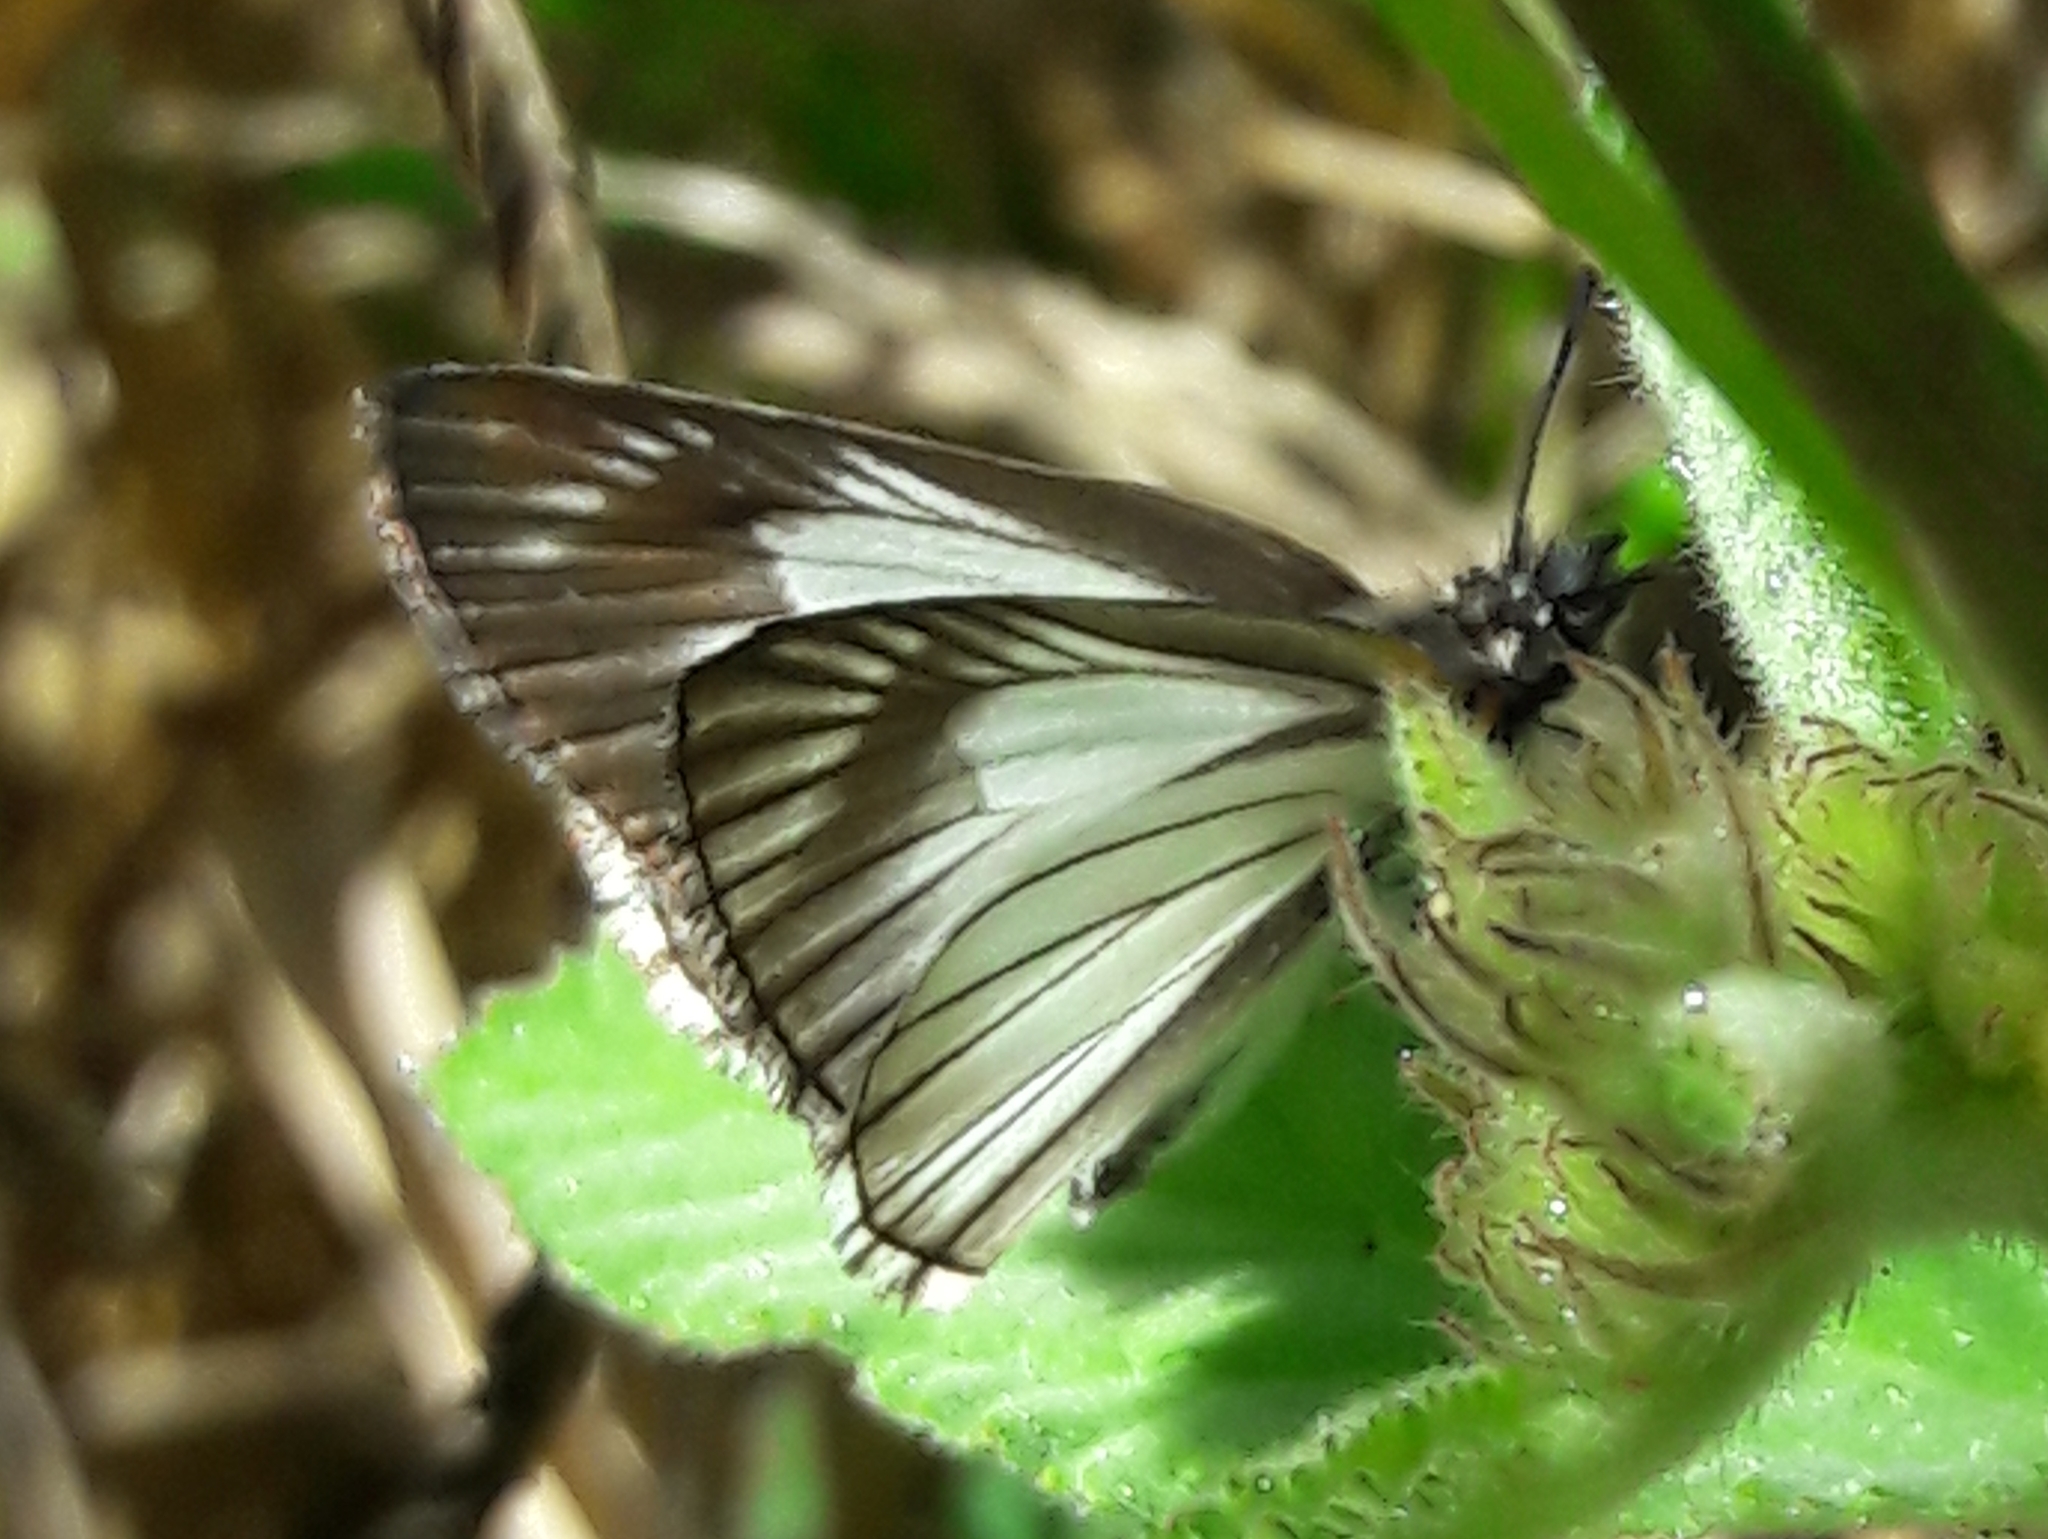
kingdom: Animalia
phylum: Arthropoda
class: Insecta
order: Lepidoptera
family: Hesperiidae
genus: Heliopetes
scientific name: Heliopetes arsalte
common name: Veined white-skipper
